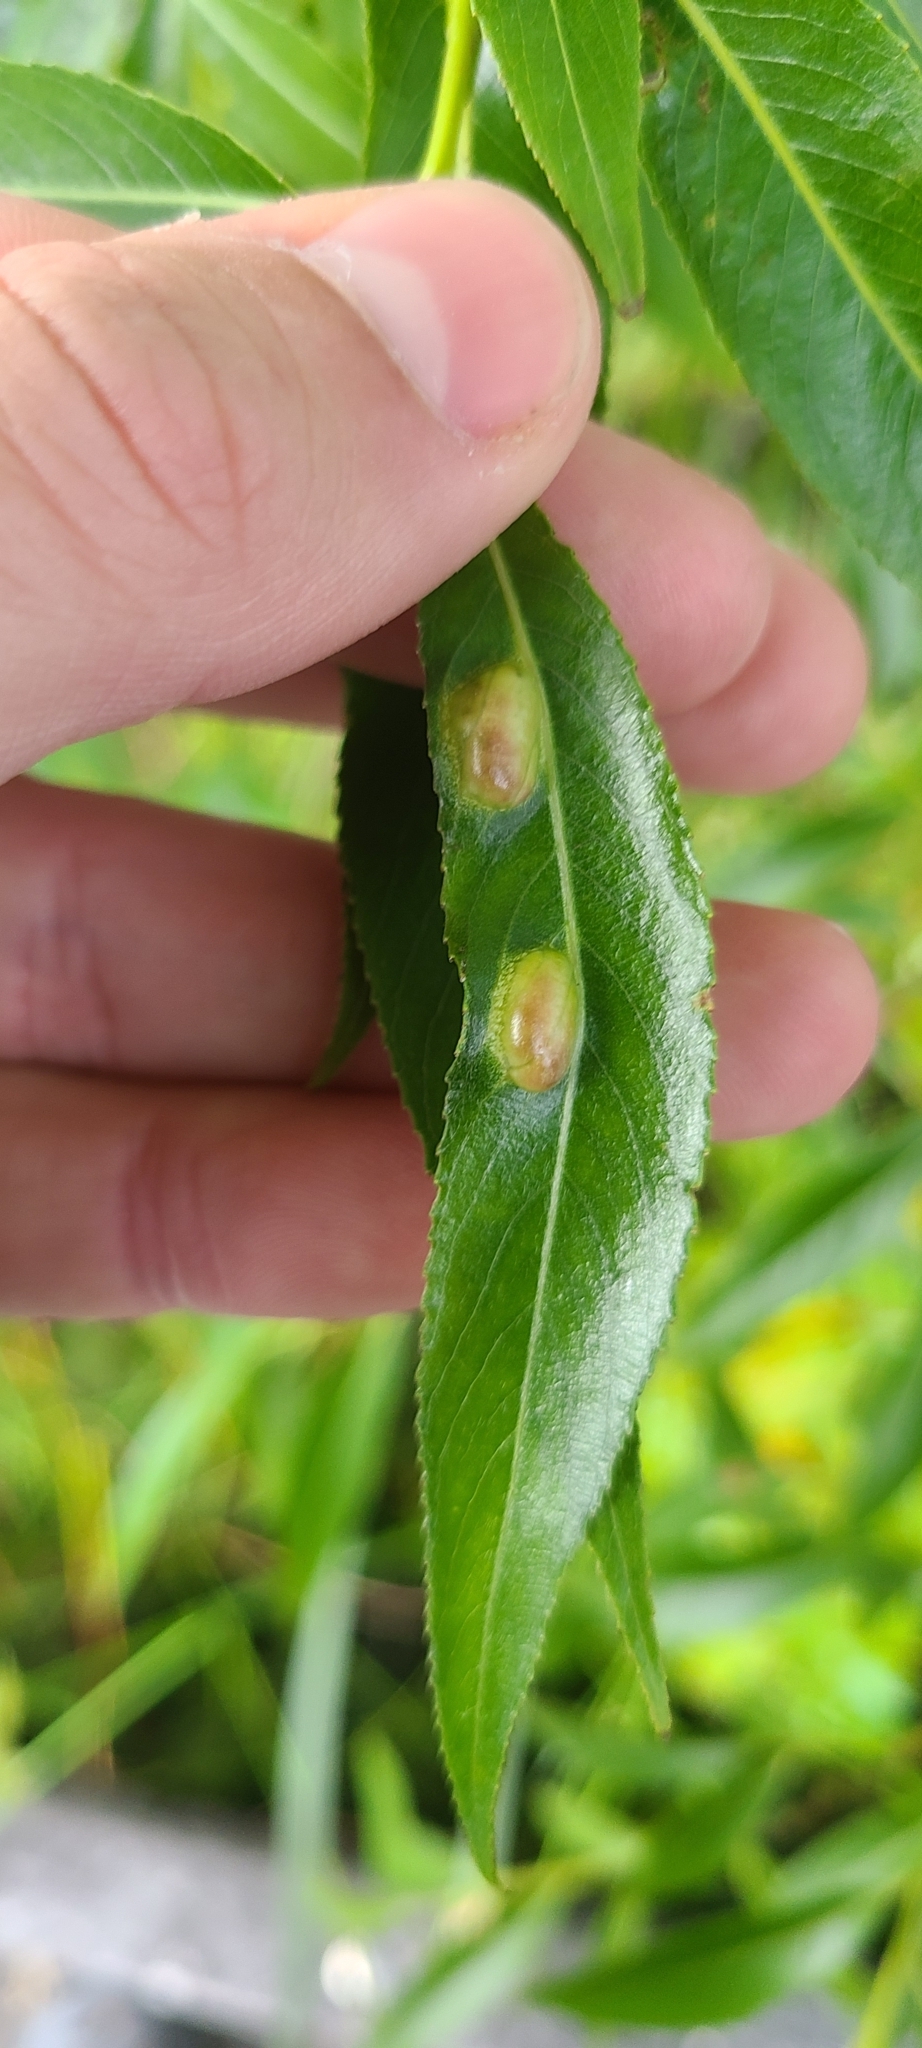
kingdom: Animalia
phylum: Arthropoda
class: Insecta
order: Hymenoptera
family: Tenthredinidae
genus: Pontania
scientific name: Pontania proxima
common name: Common sawfly
